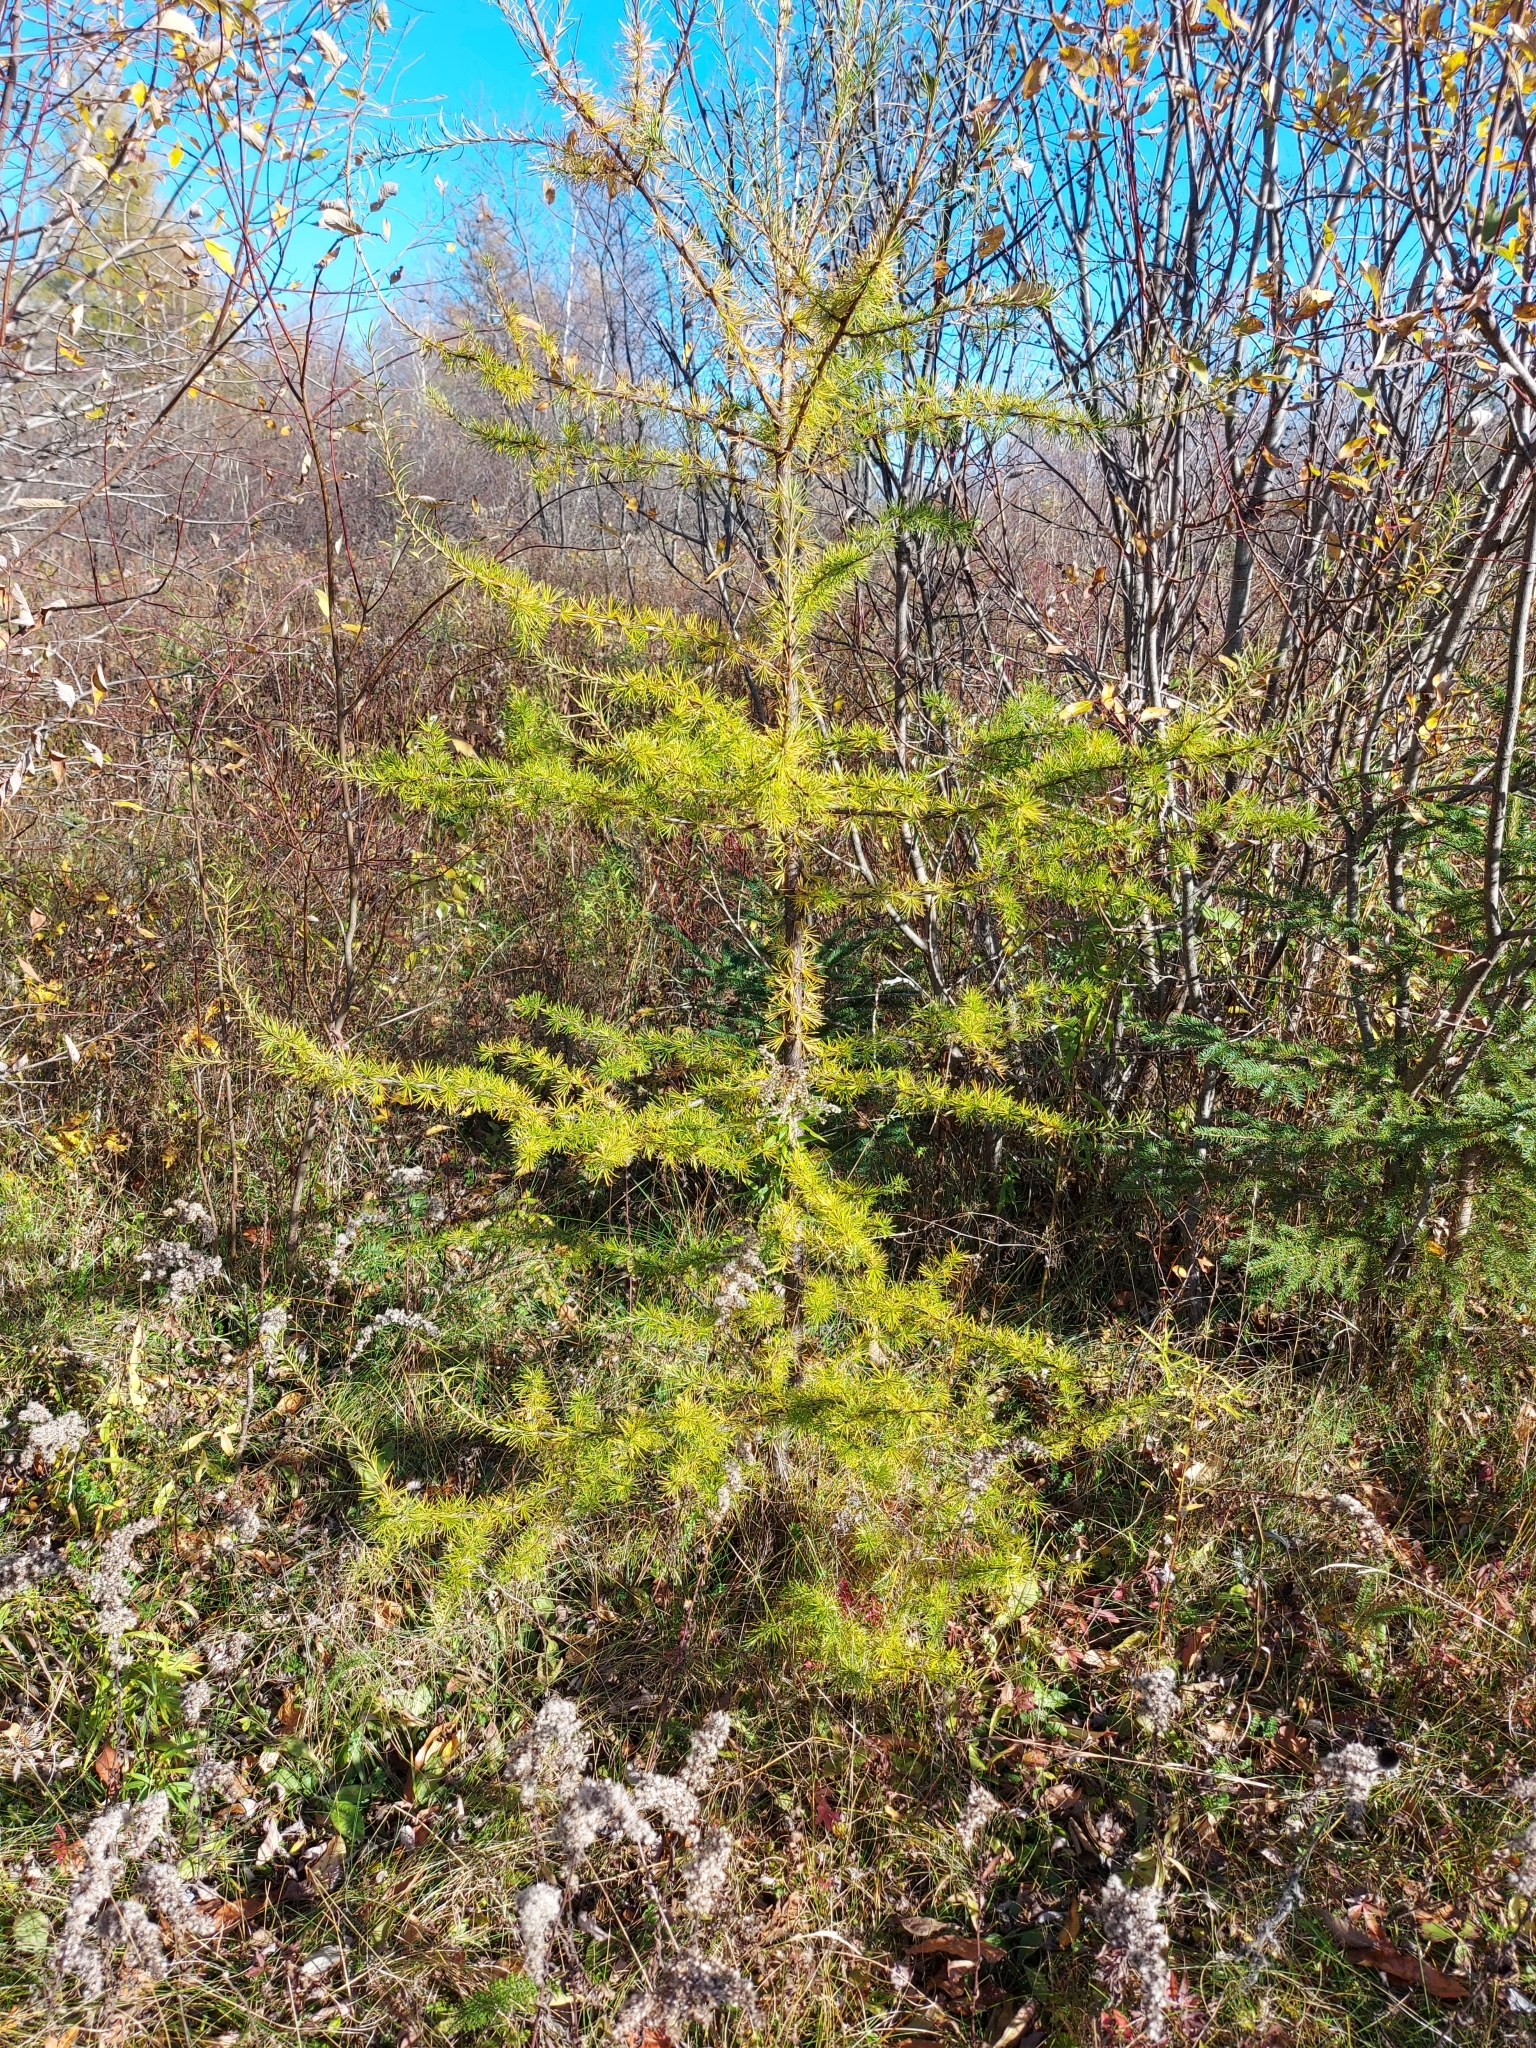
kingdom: Plantae
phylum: Tracheophyta
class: Pinopsida
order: Pinales
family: Pinaceae
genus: Larix
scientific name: Larix laricina
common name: American larch
